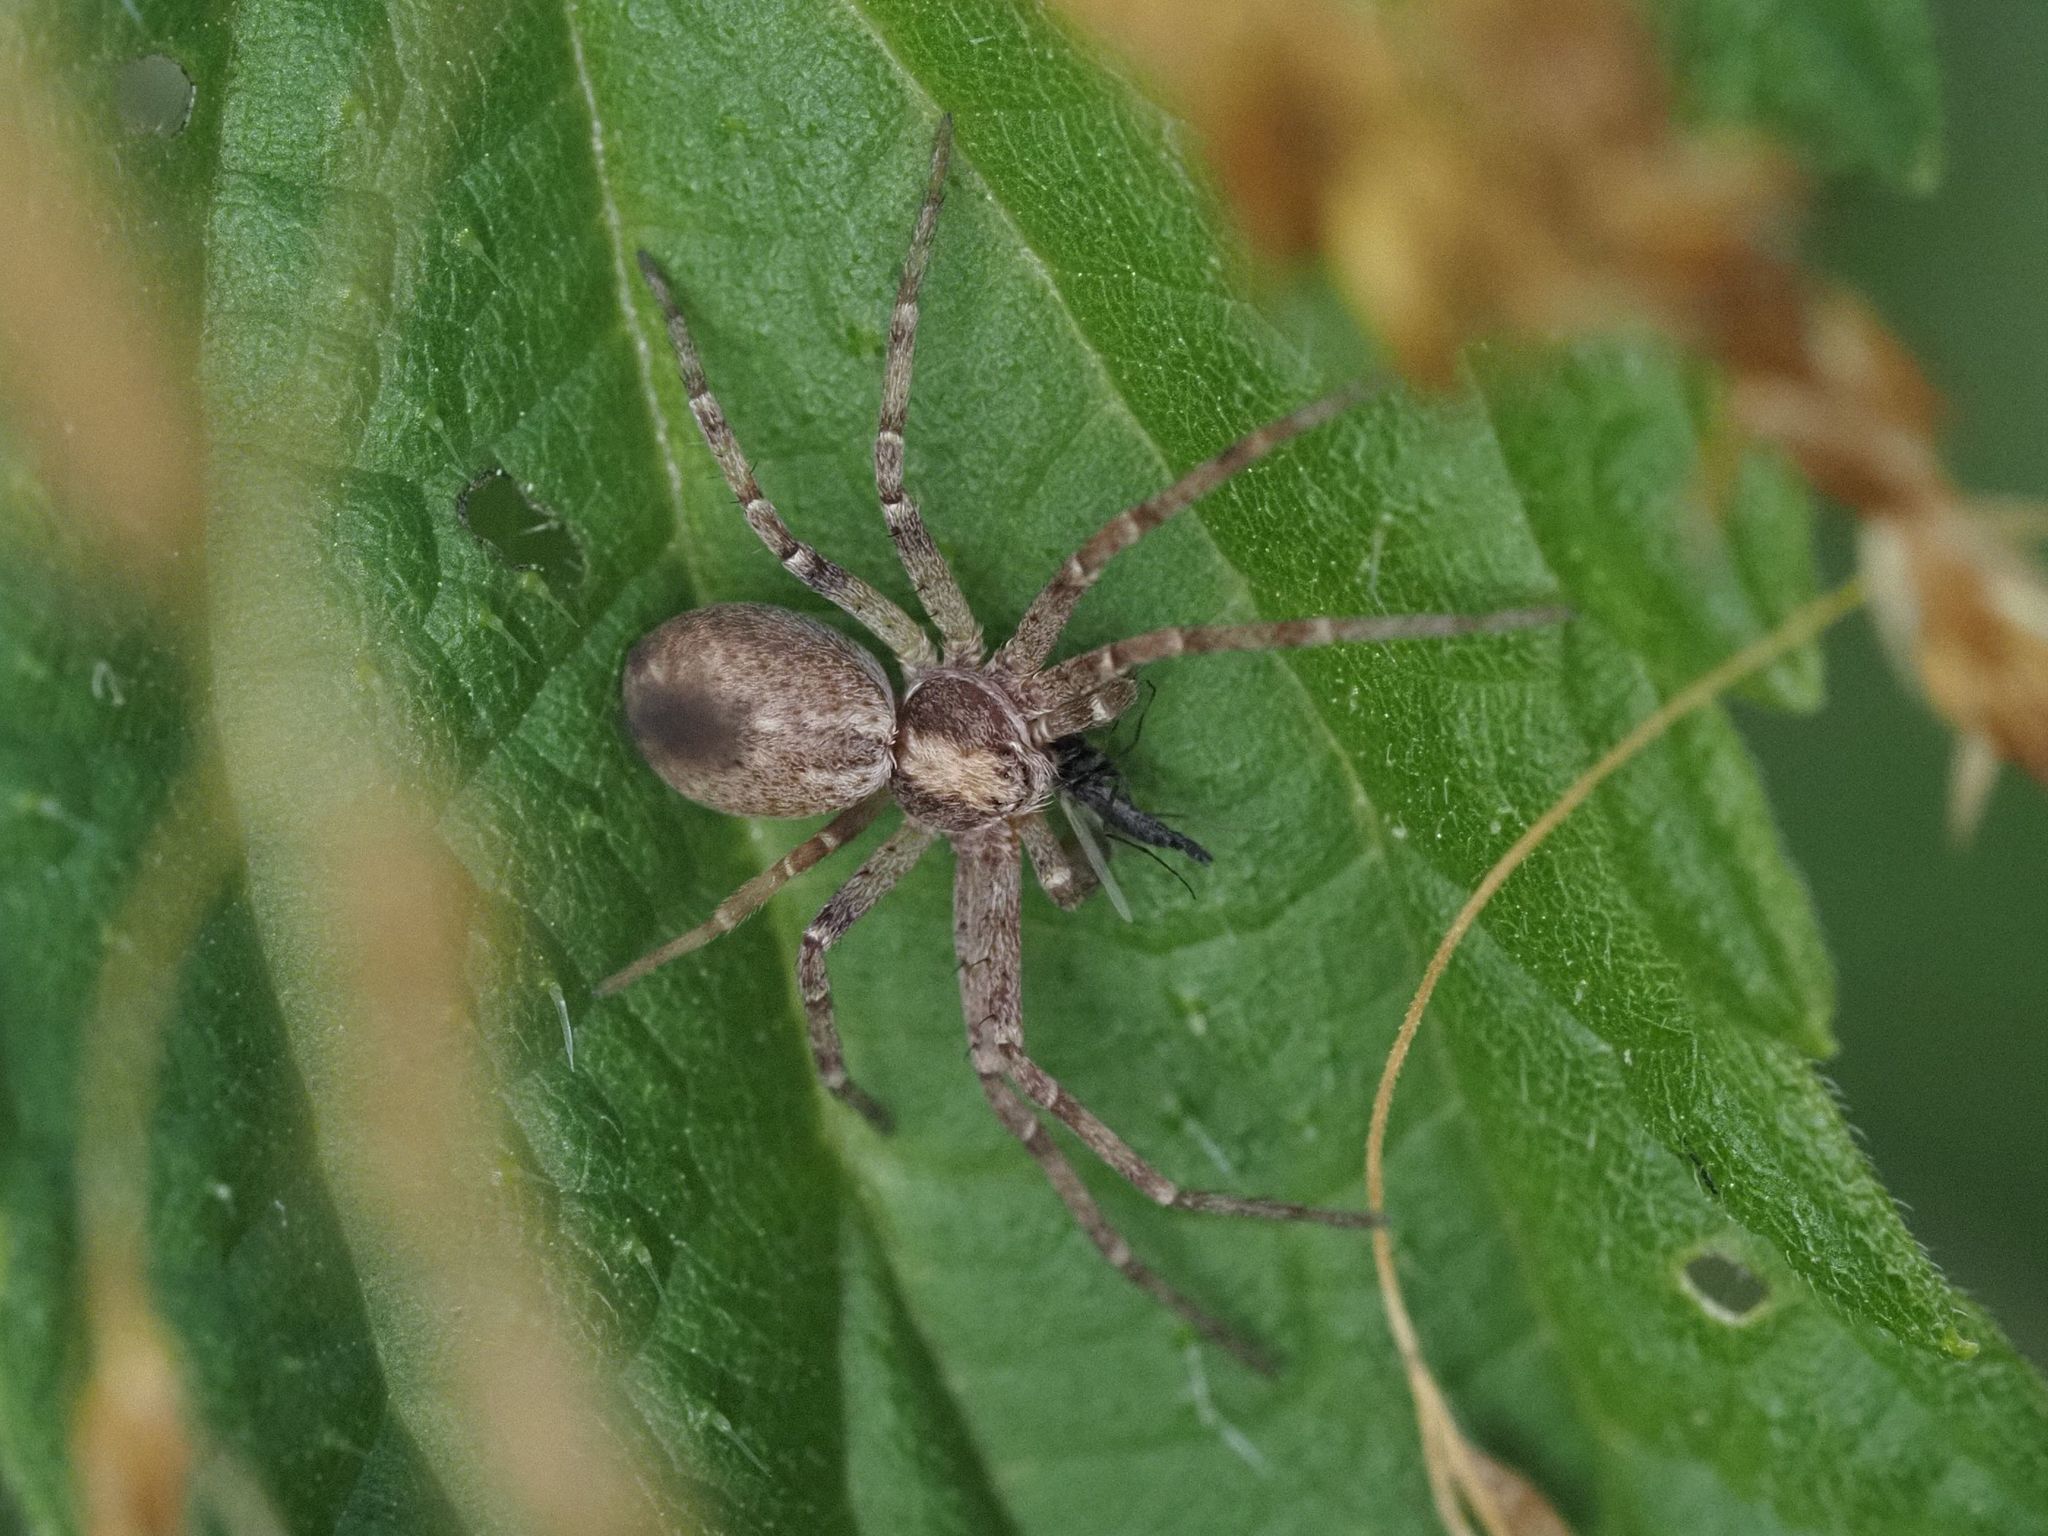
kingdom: Animalia
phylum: Arthropoda
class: Arachnida
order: Araneae
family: Philodromidae
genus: Philodromus
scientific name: Philodromus
